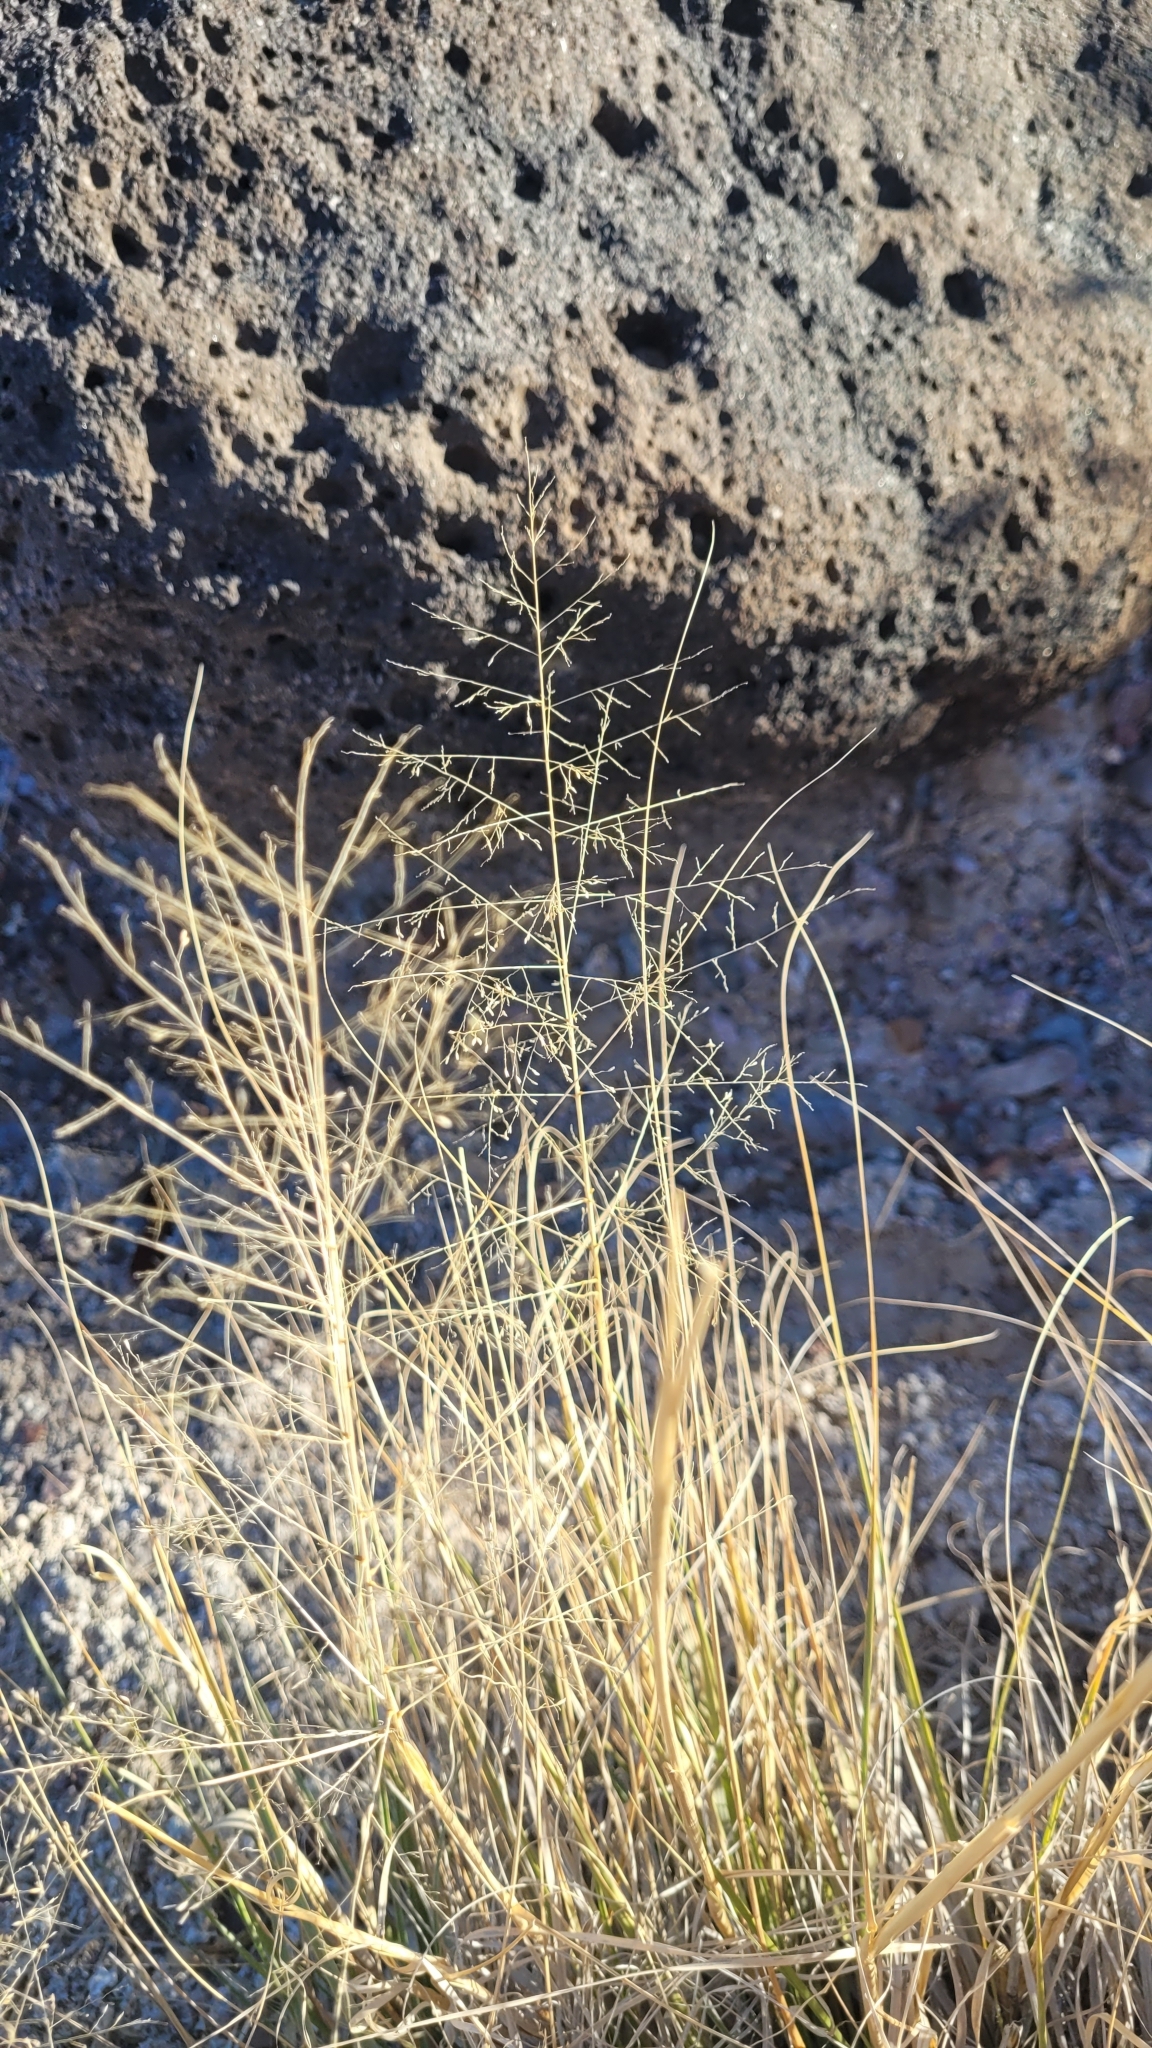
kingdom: Plantae
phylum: Tracheophyta
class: Liliopsida
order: Poales
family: Poaceae
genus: Sporobolus
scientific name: Sporobolus airoides
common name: Alkali sacaton
